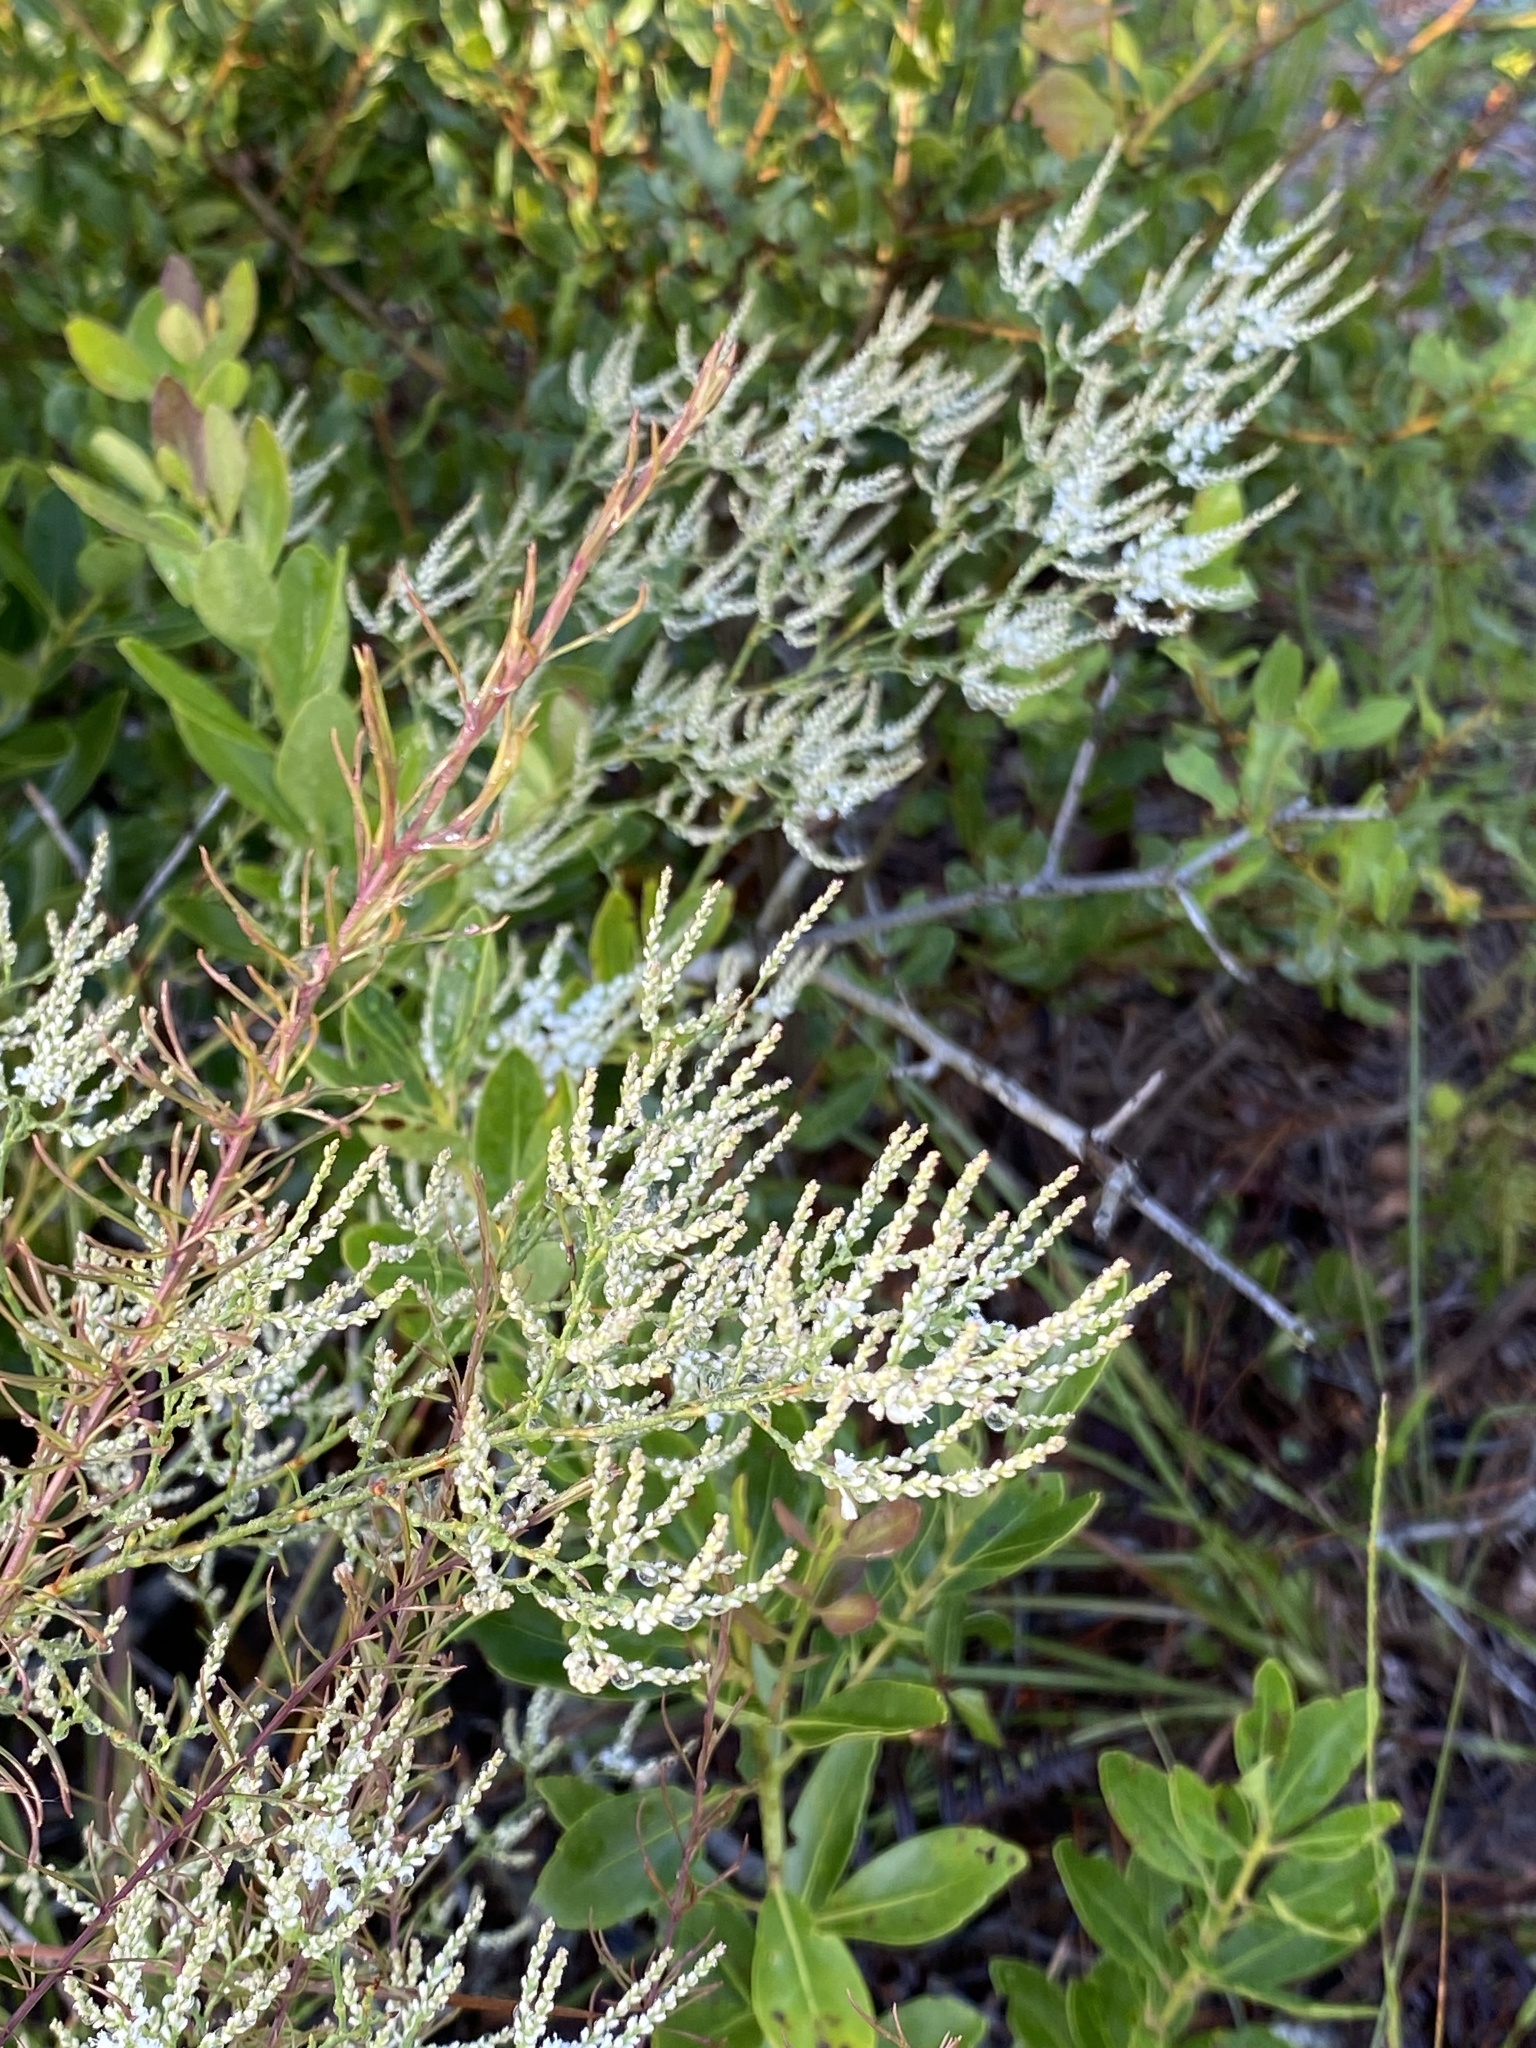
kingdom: Plantae
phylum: Tracheophyta
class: Magnoliopsida
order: Caryophyllales
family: Polygonaceae
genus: Polygonella
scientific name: Polygonella polygama
